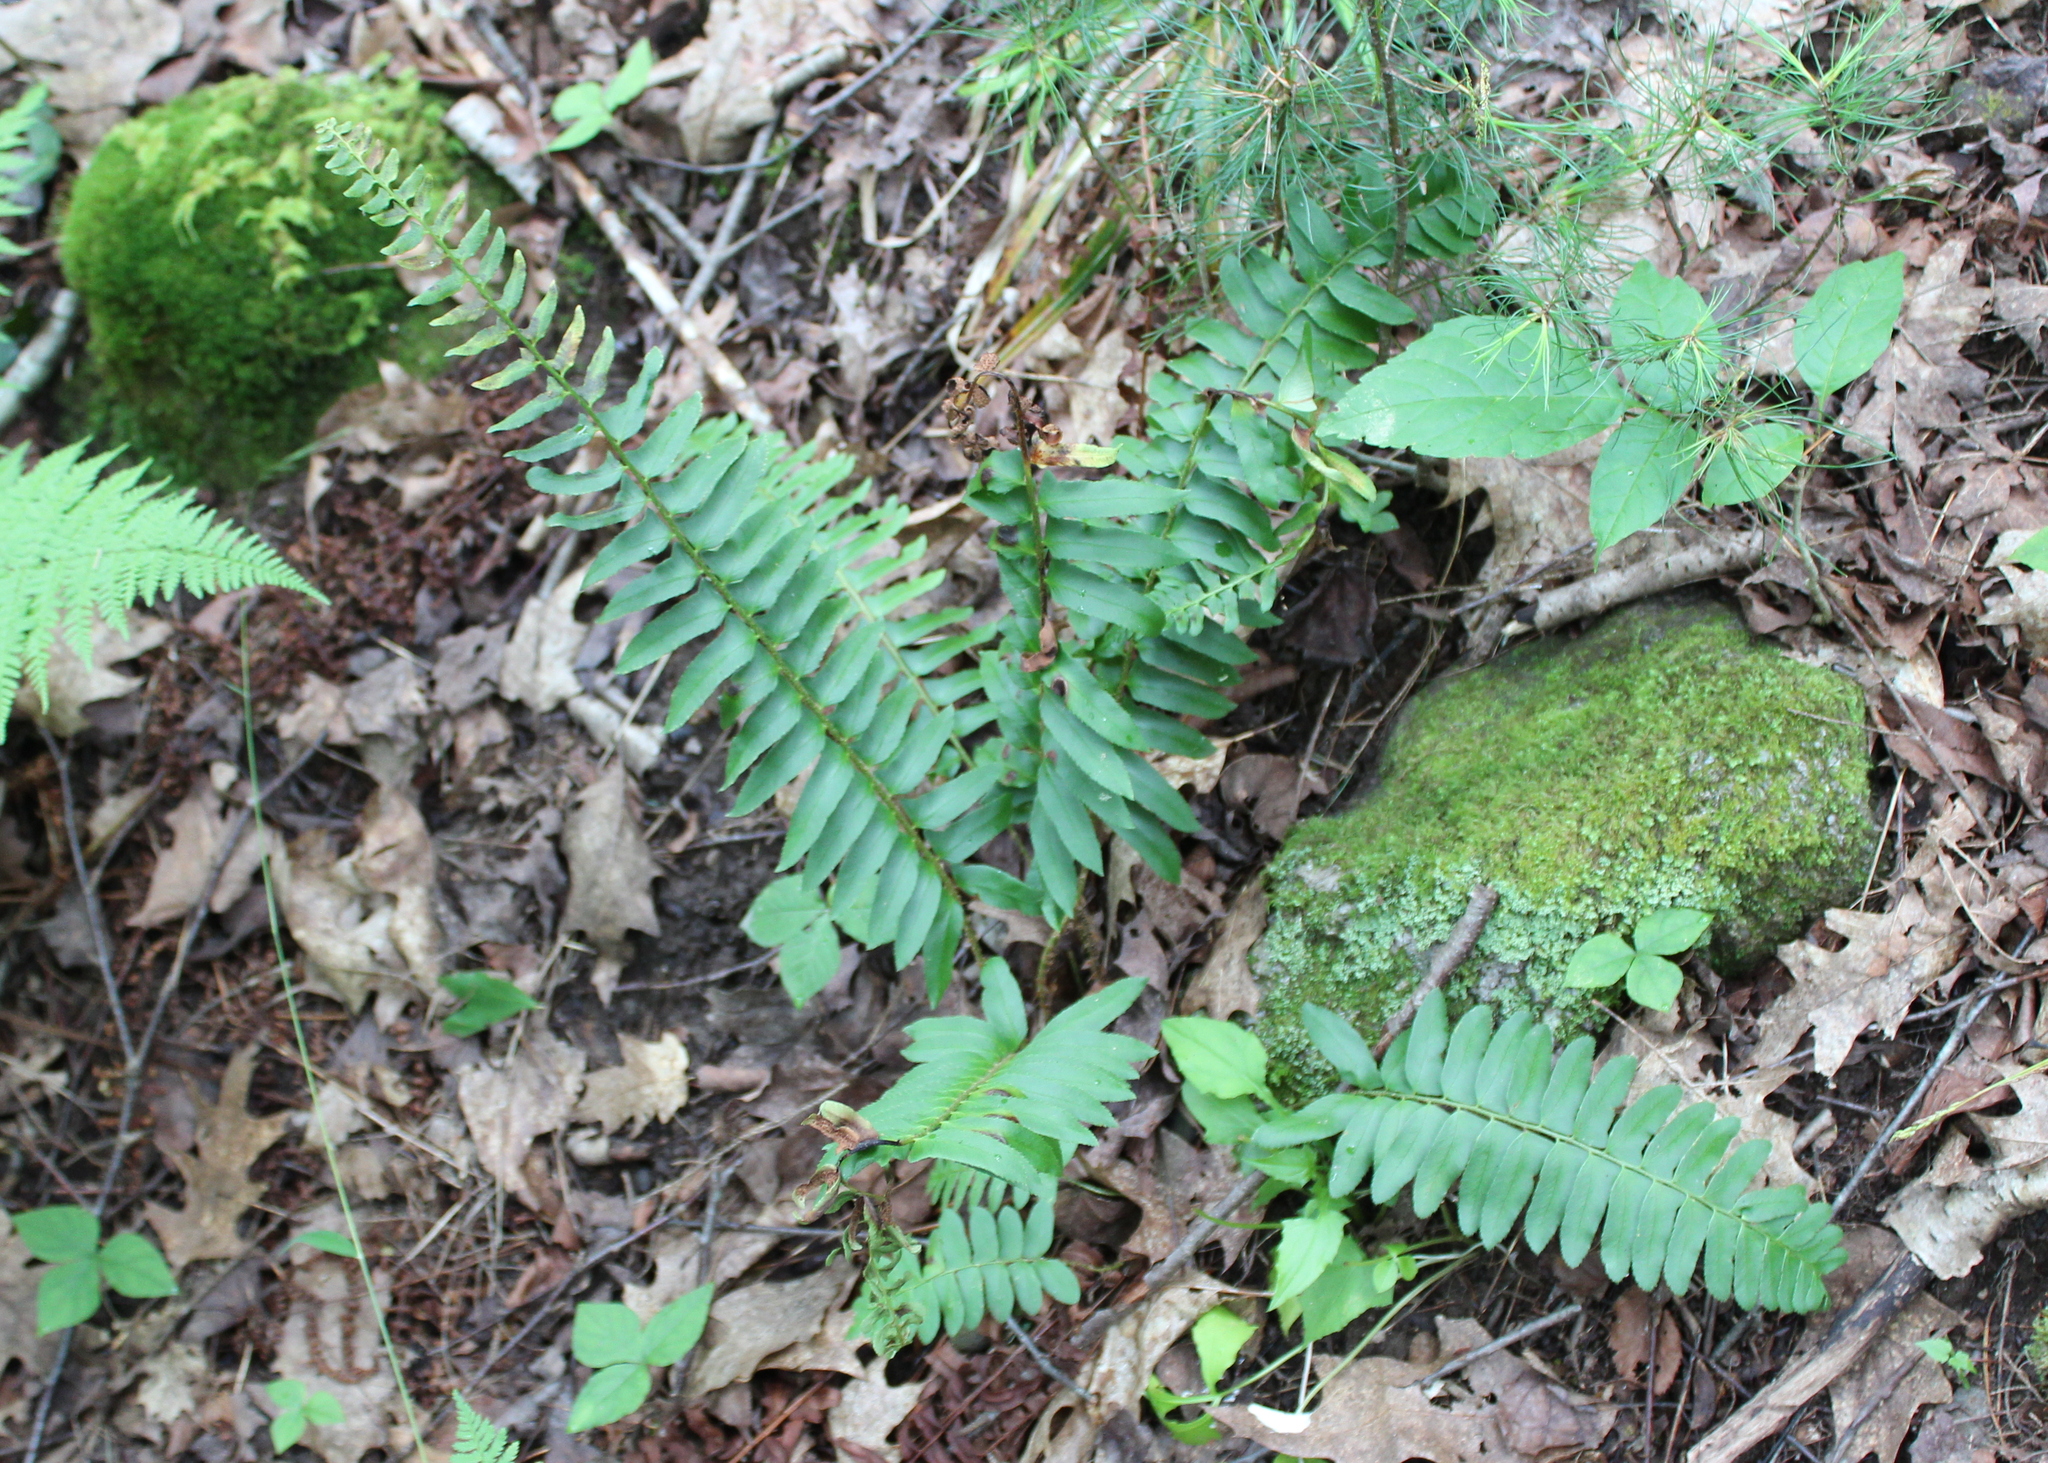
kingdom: Plantae
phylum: Tracheophyta
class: Polypodiopsida
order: Polypodiales
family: Dryopteridaceae
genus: Polystichum
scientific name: Polystichum acrostichoides
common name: Christmas fern
